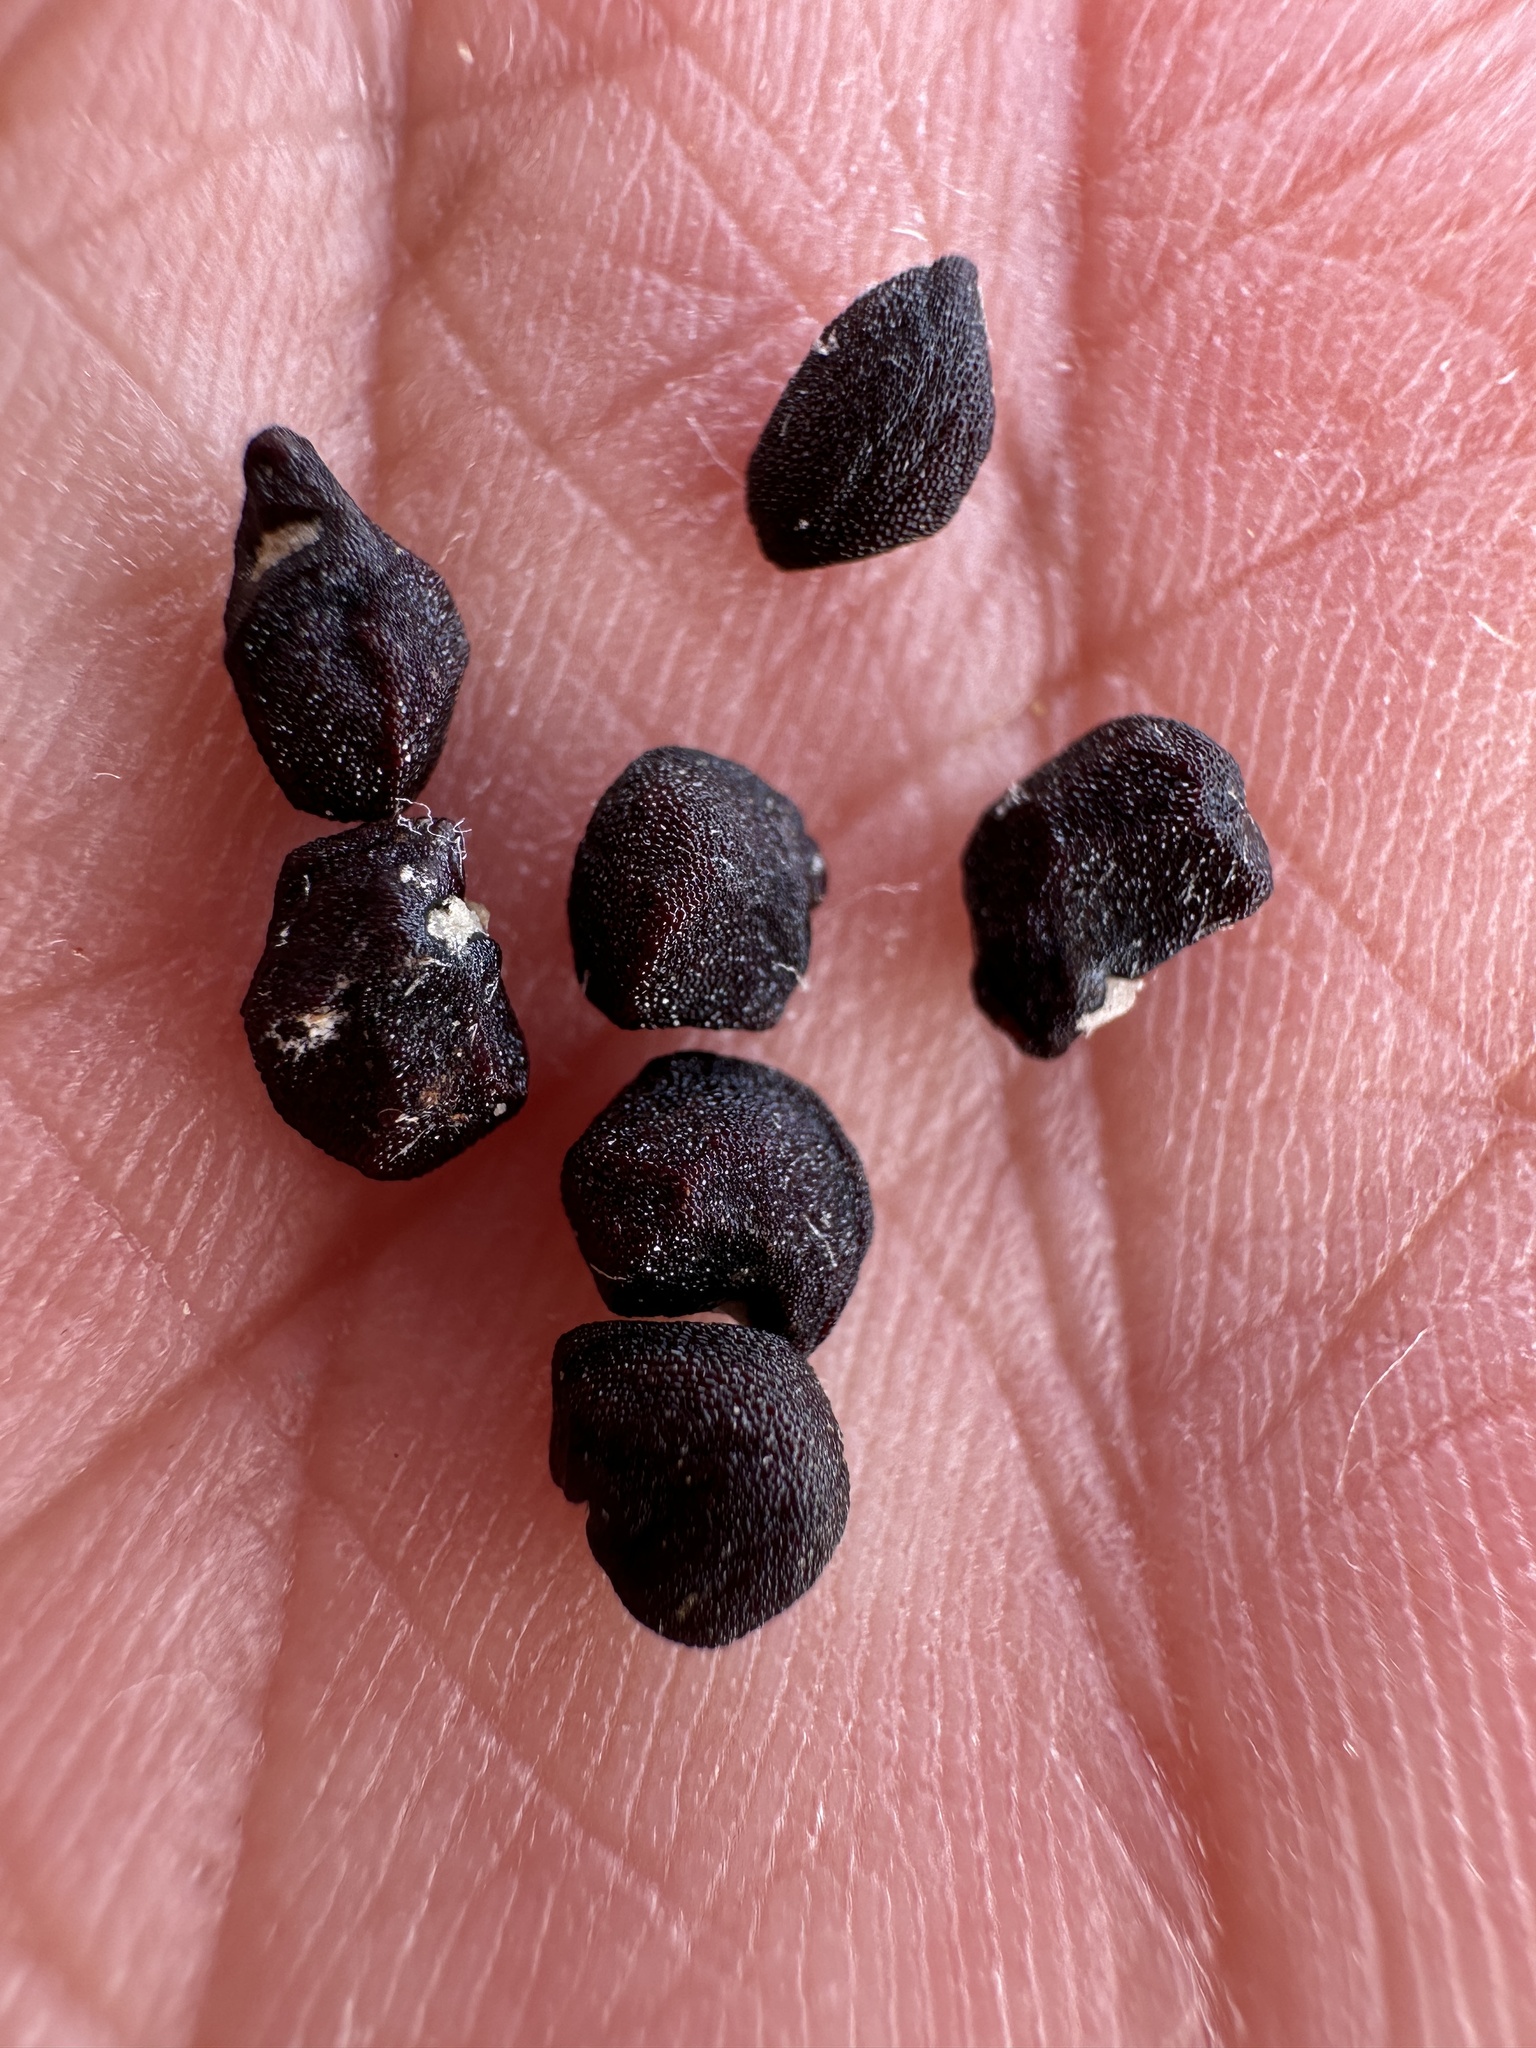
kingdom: Plantae
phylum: Tracheophyta
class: Magnoliopsida
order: Caryophyllales
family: Cactaceae
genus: Echinocactus
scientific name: Echinocactus polycephalus
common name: Cottontop cactus
